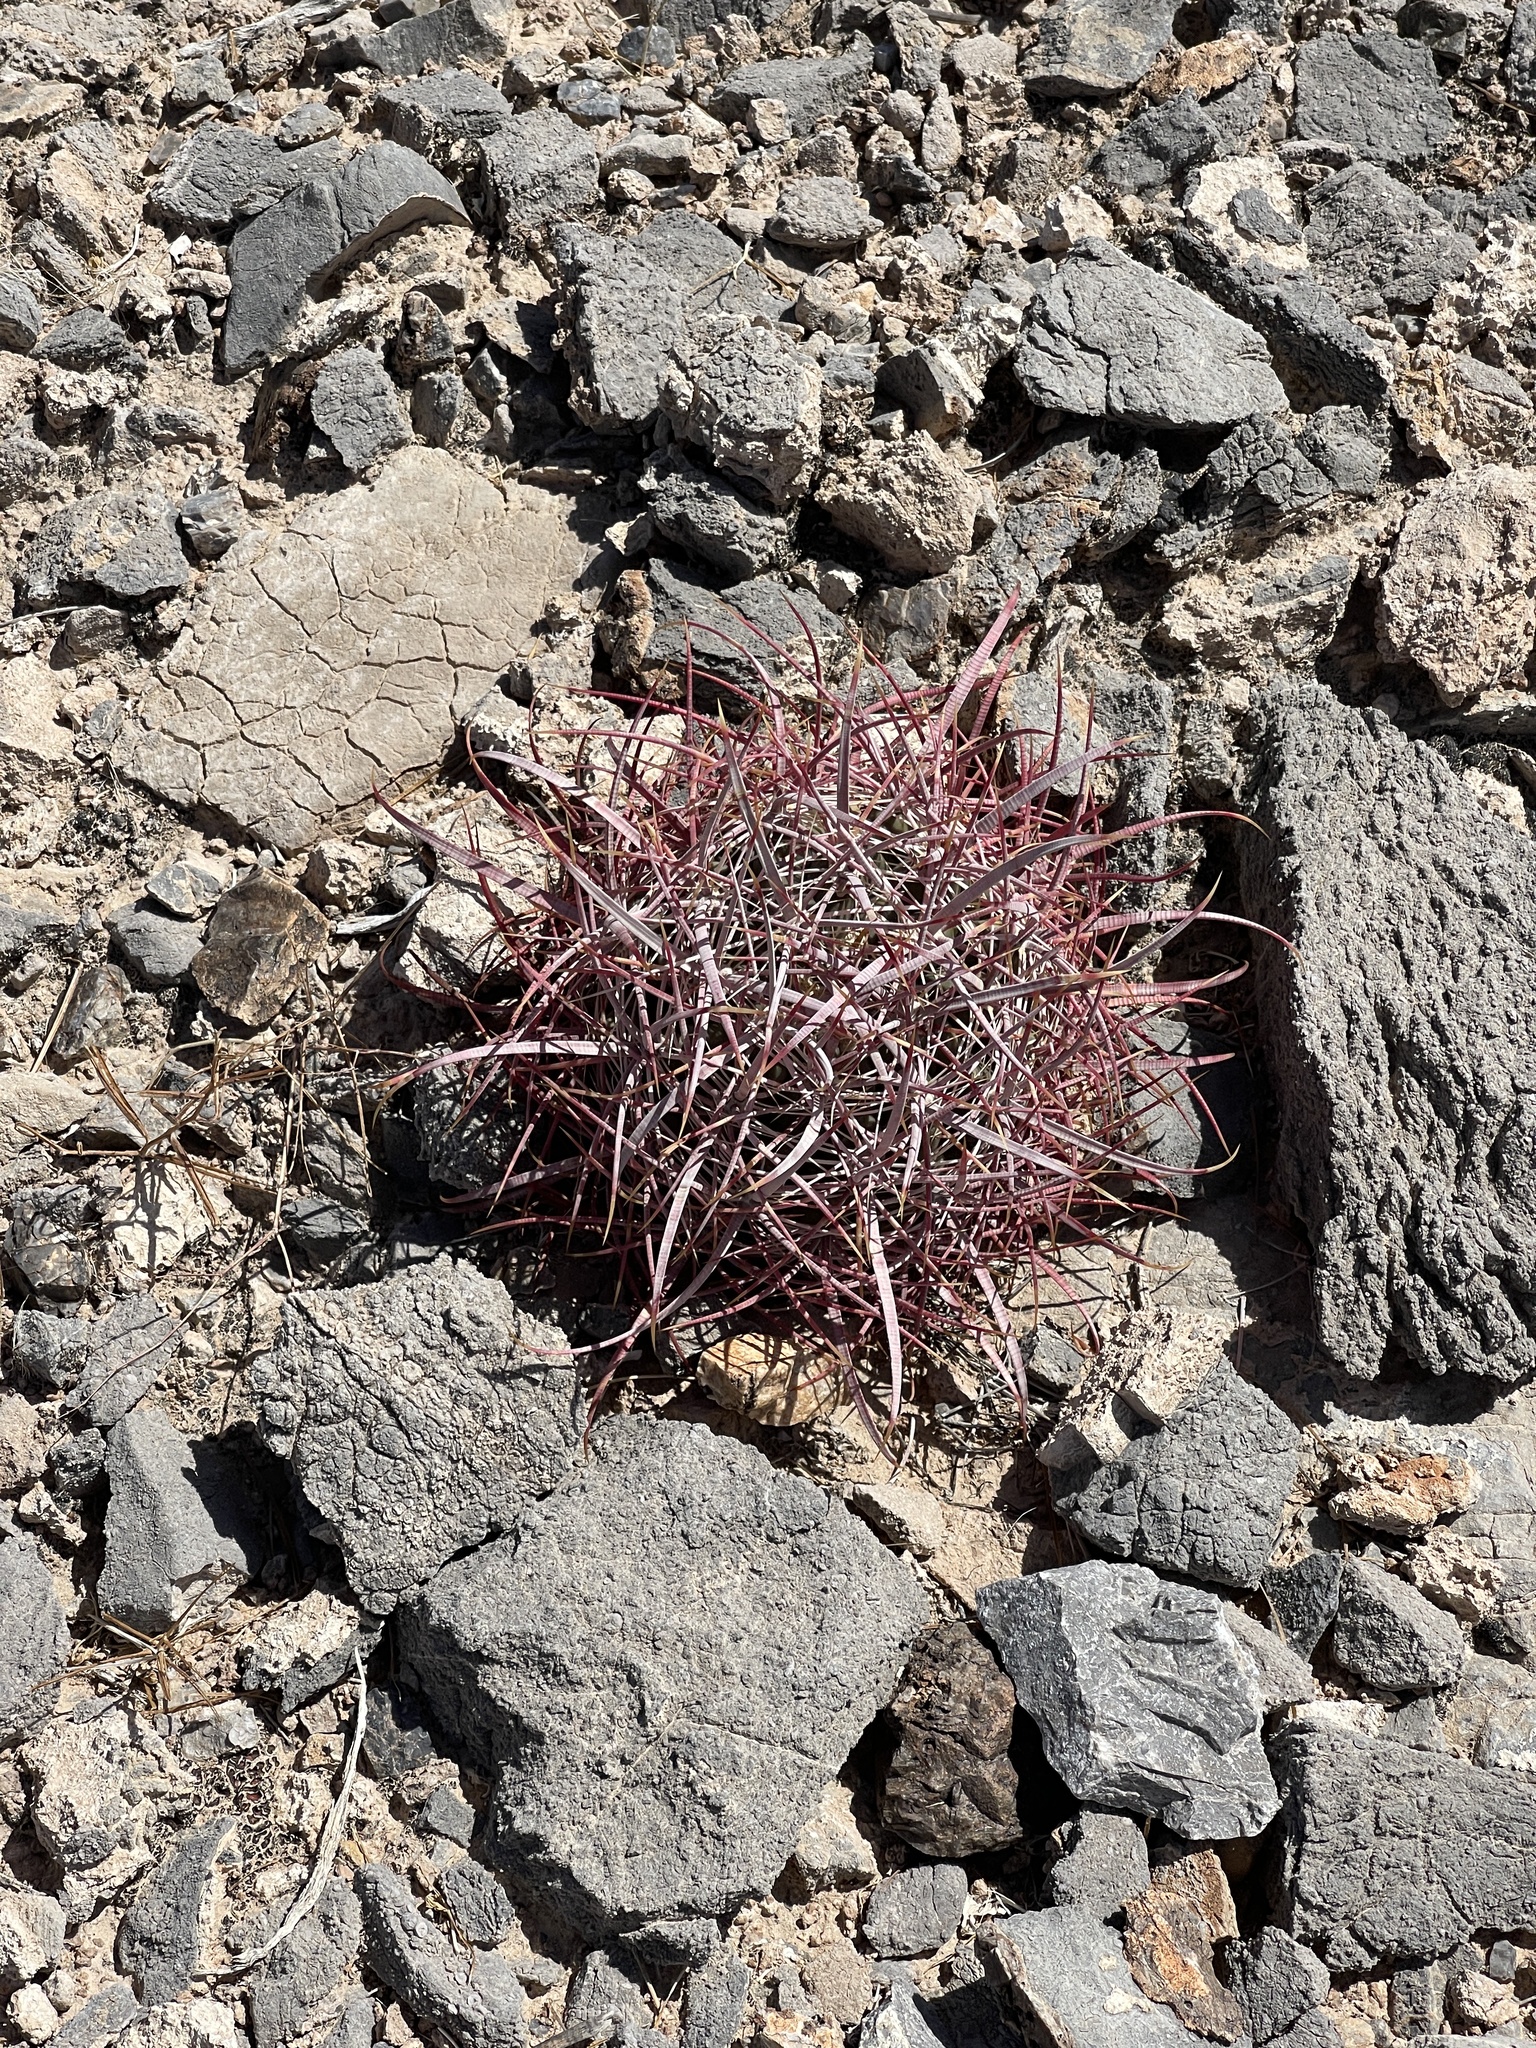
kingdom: Plantae
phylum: Tracheophyta
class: Magnoliopsida
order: Caryophyllales
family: Cactaceae
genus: Ferocactus
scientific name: Ferocactus cylindraceus
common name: California barrel cactus
